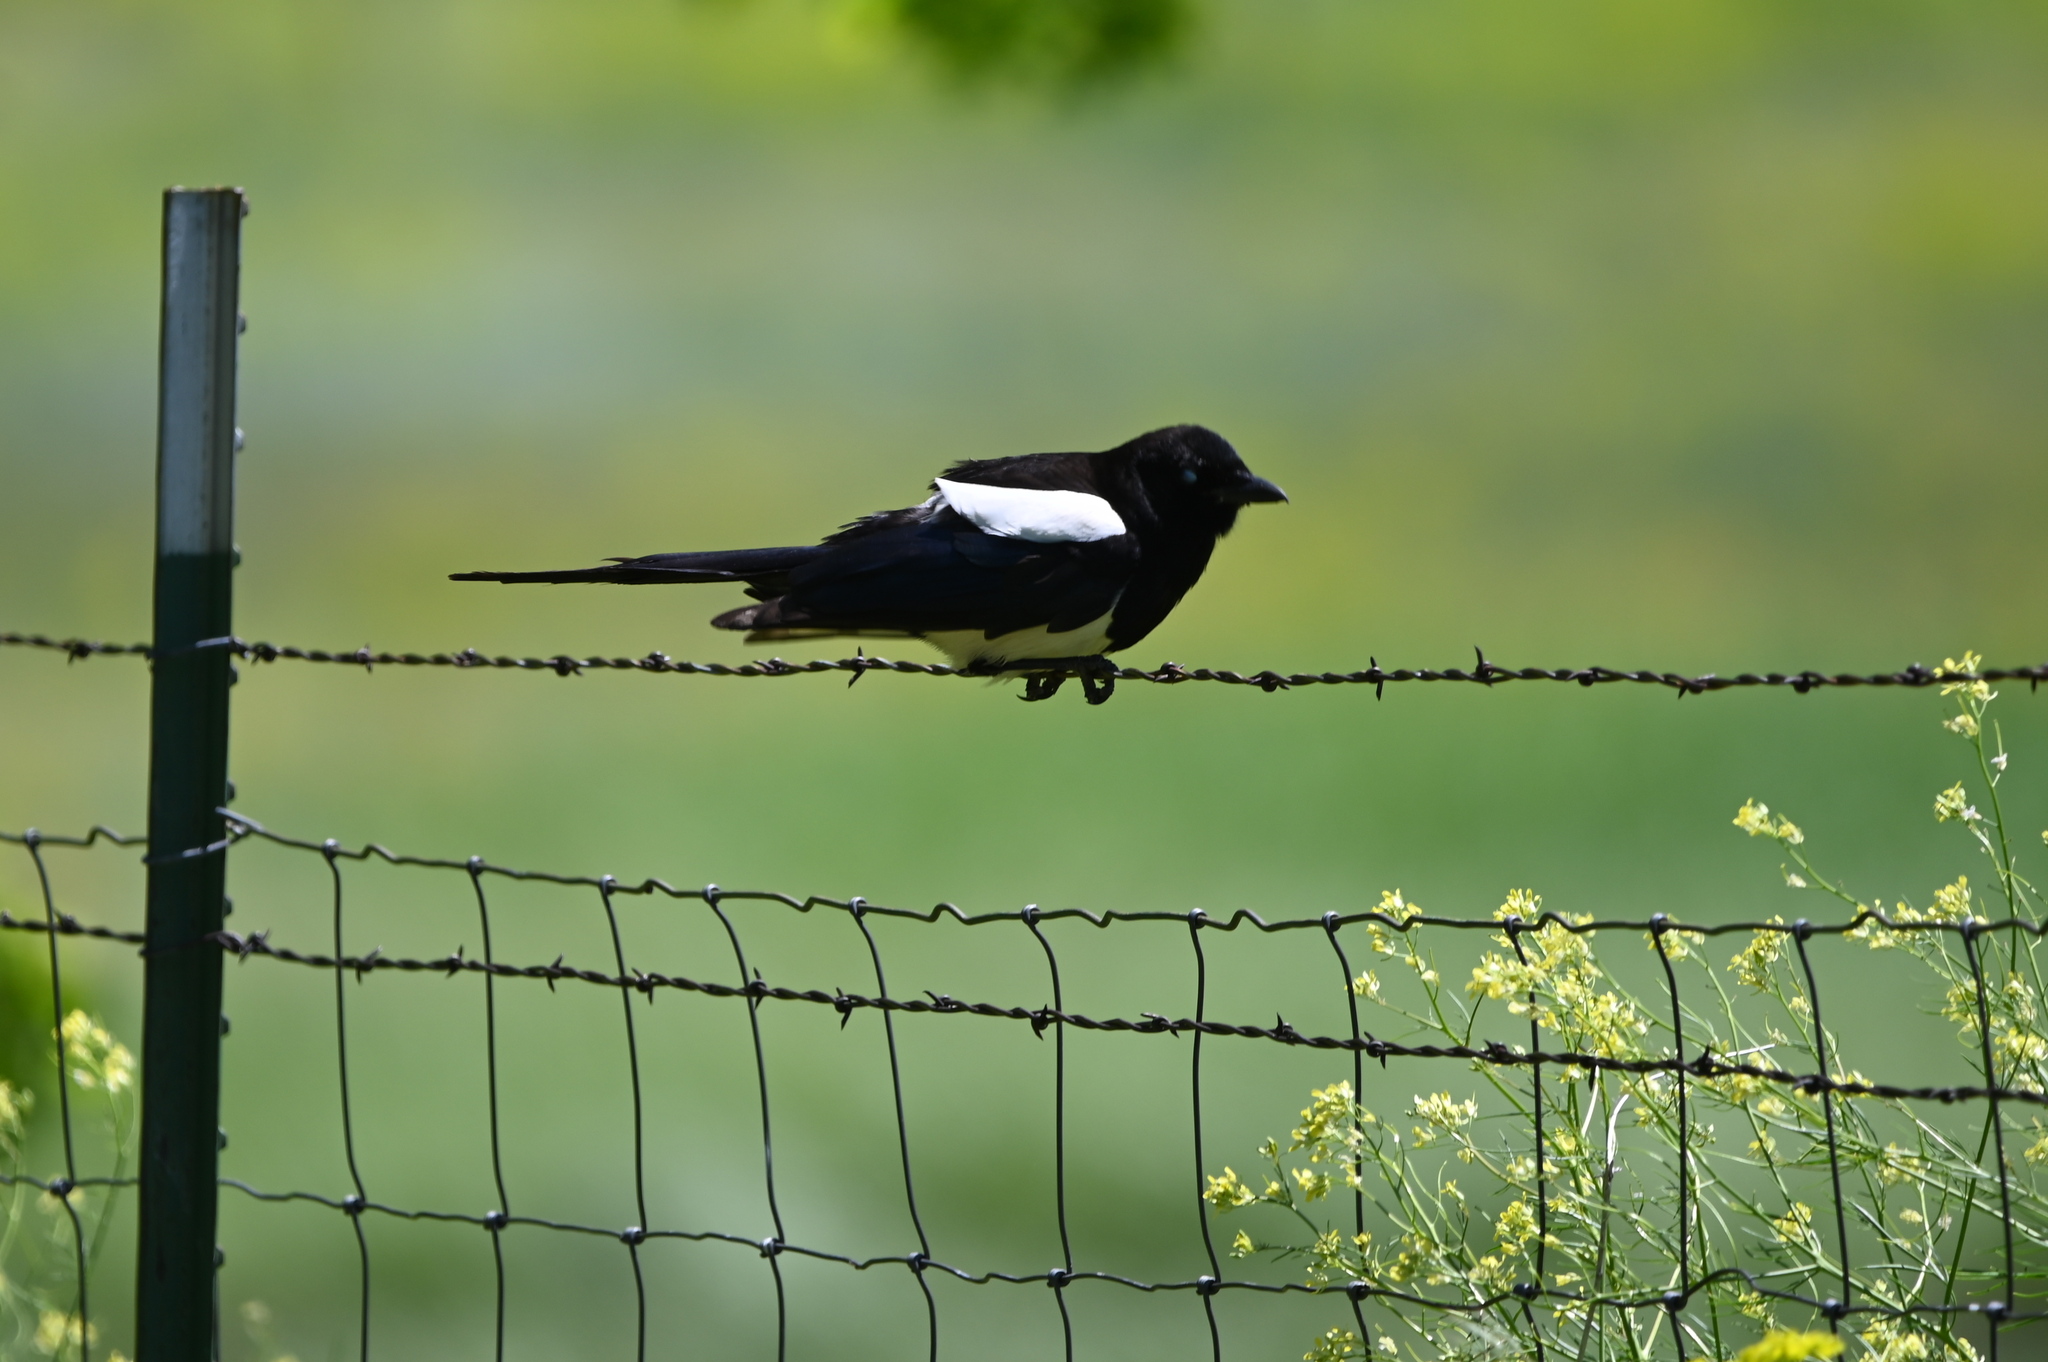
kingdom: Animalia
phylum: Chordata
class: Aves
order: Passeriformes
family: Corvidae
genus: Pica
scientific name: Pica hudsonia
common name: Black-billed magpie
